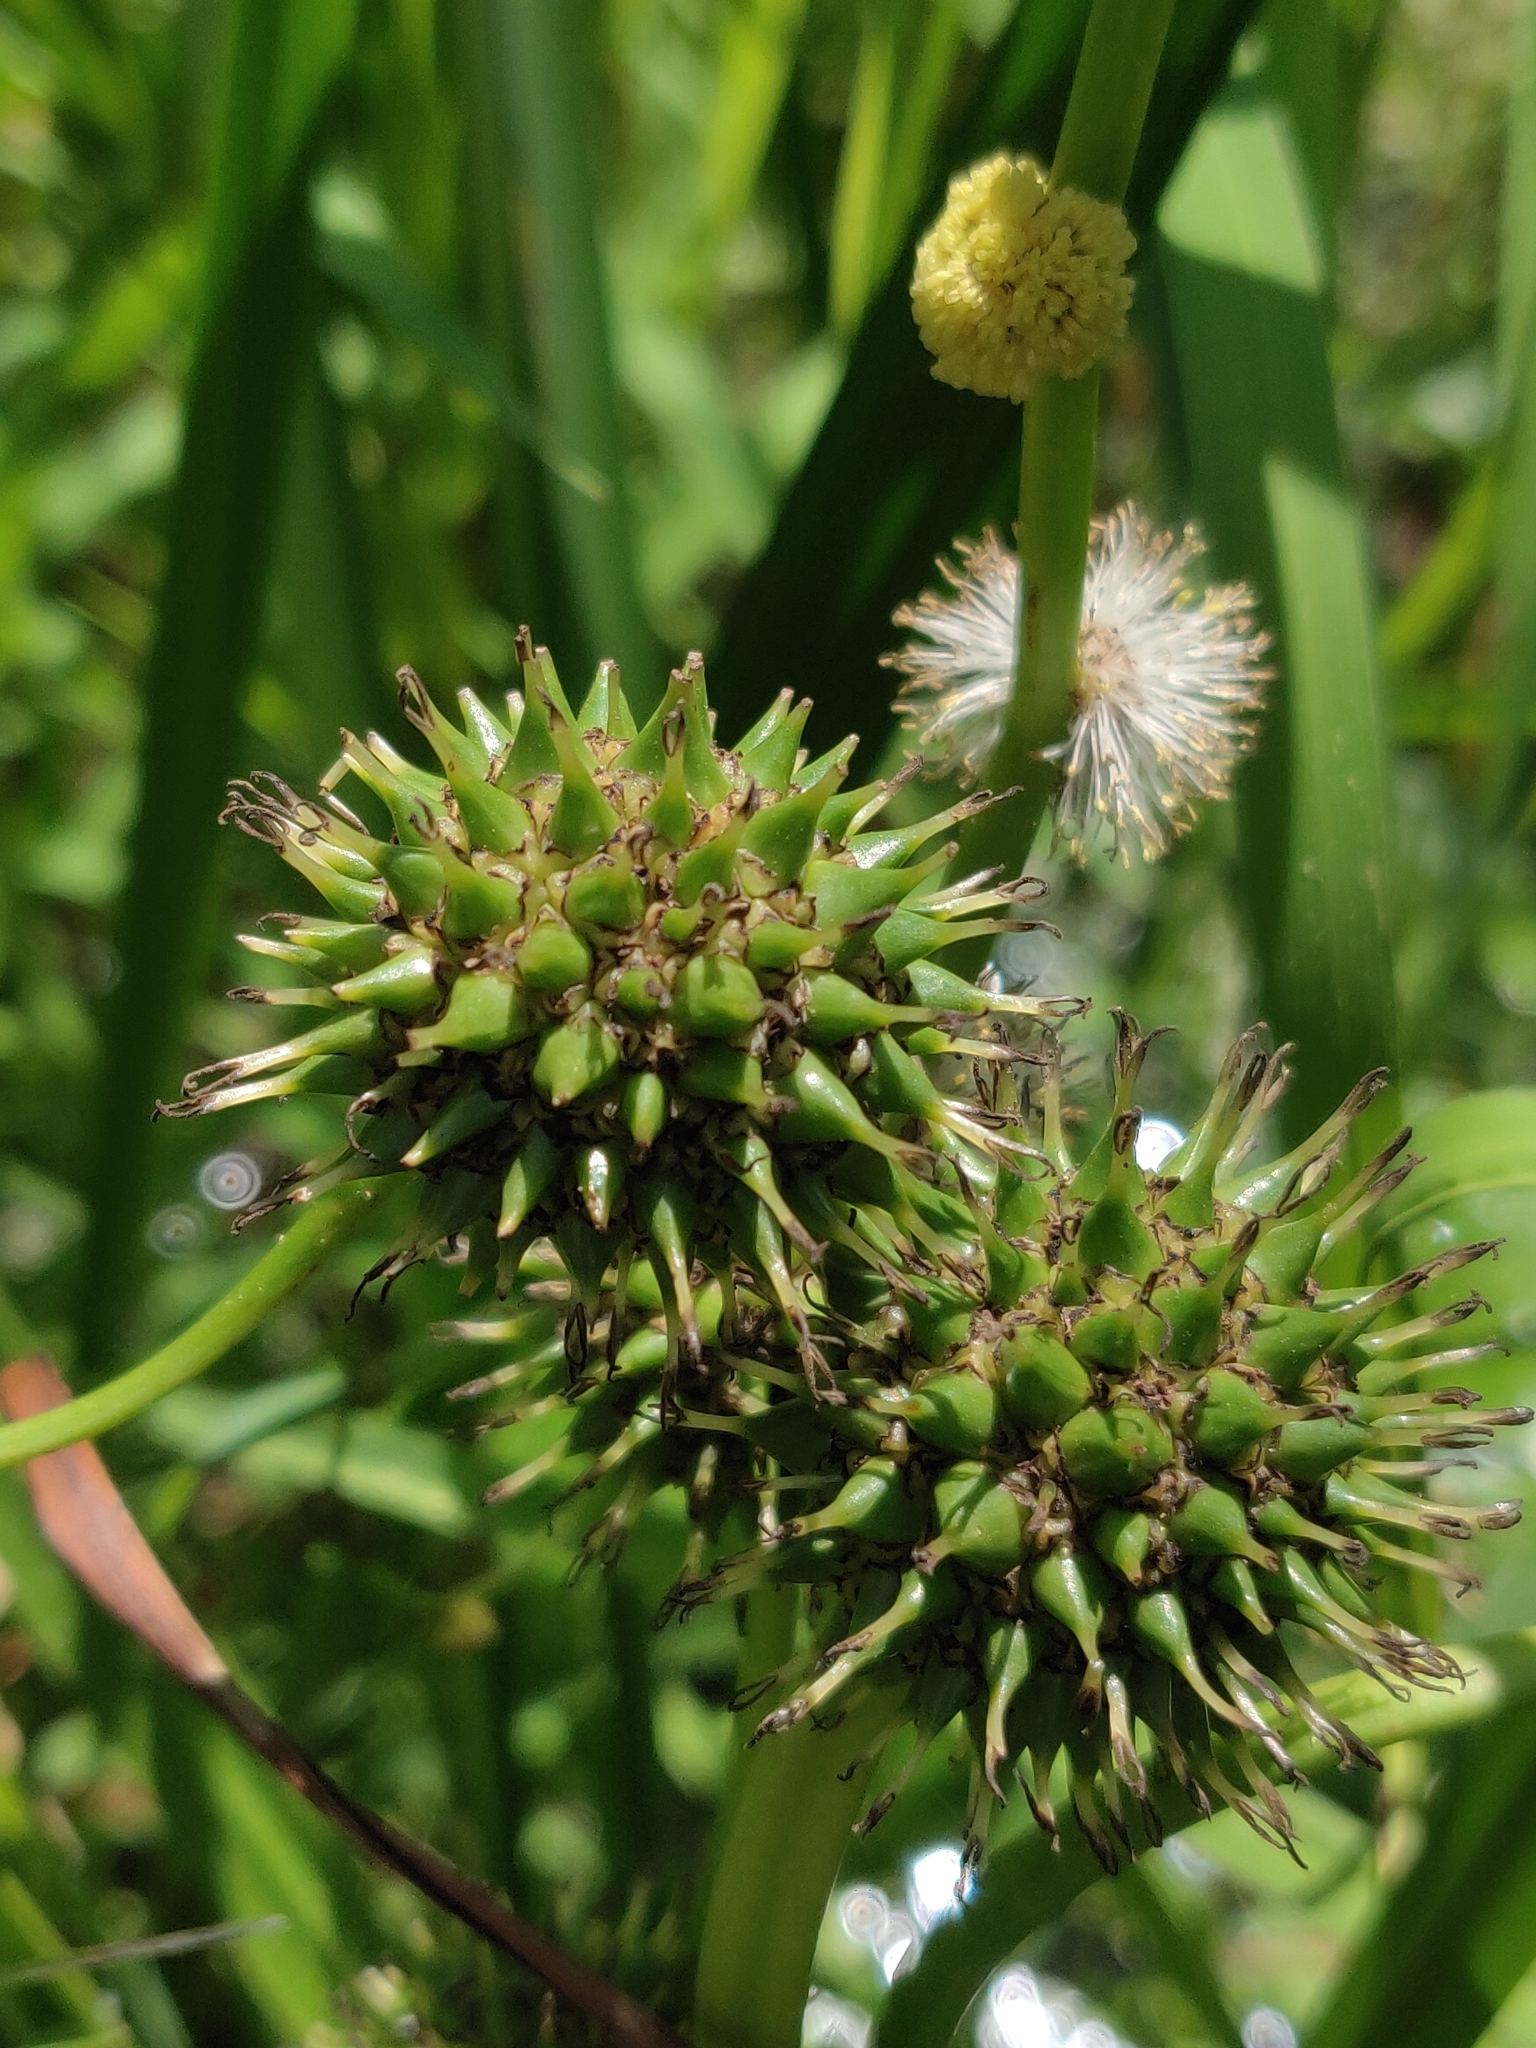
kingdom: Plantae
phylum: Tracheophyta
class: Liliopsida
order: Poales
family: Typhaceae
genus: Sparganium
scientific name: Sparganium eurycarpum
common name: Broad-fruited burreed
